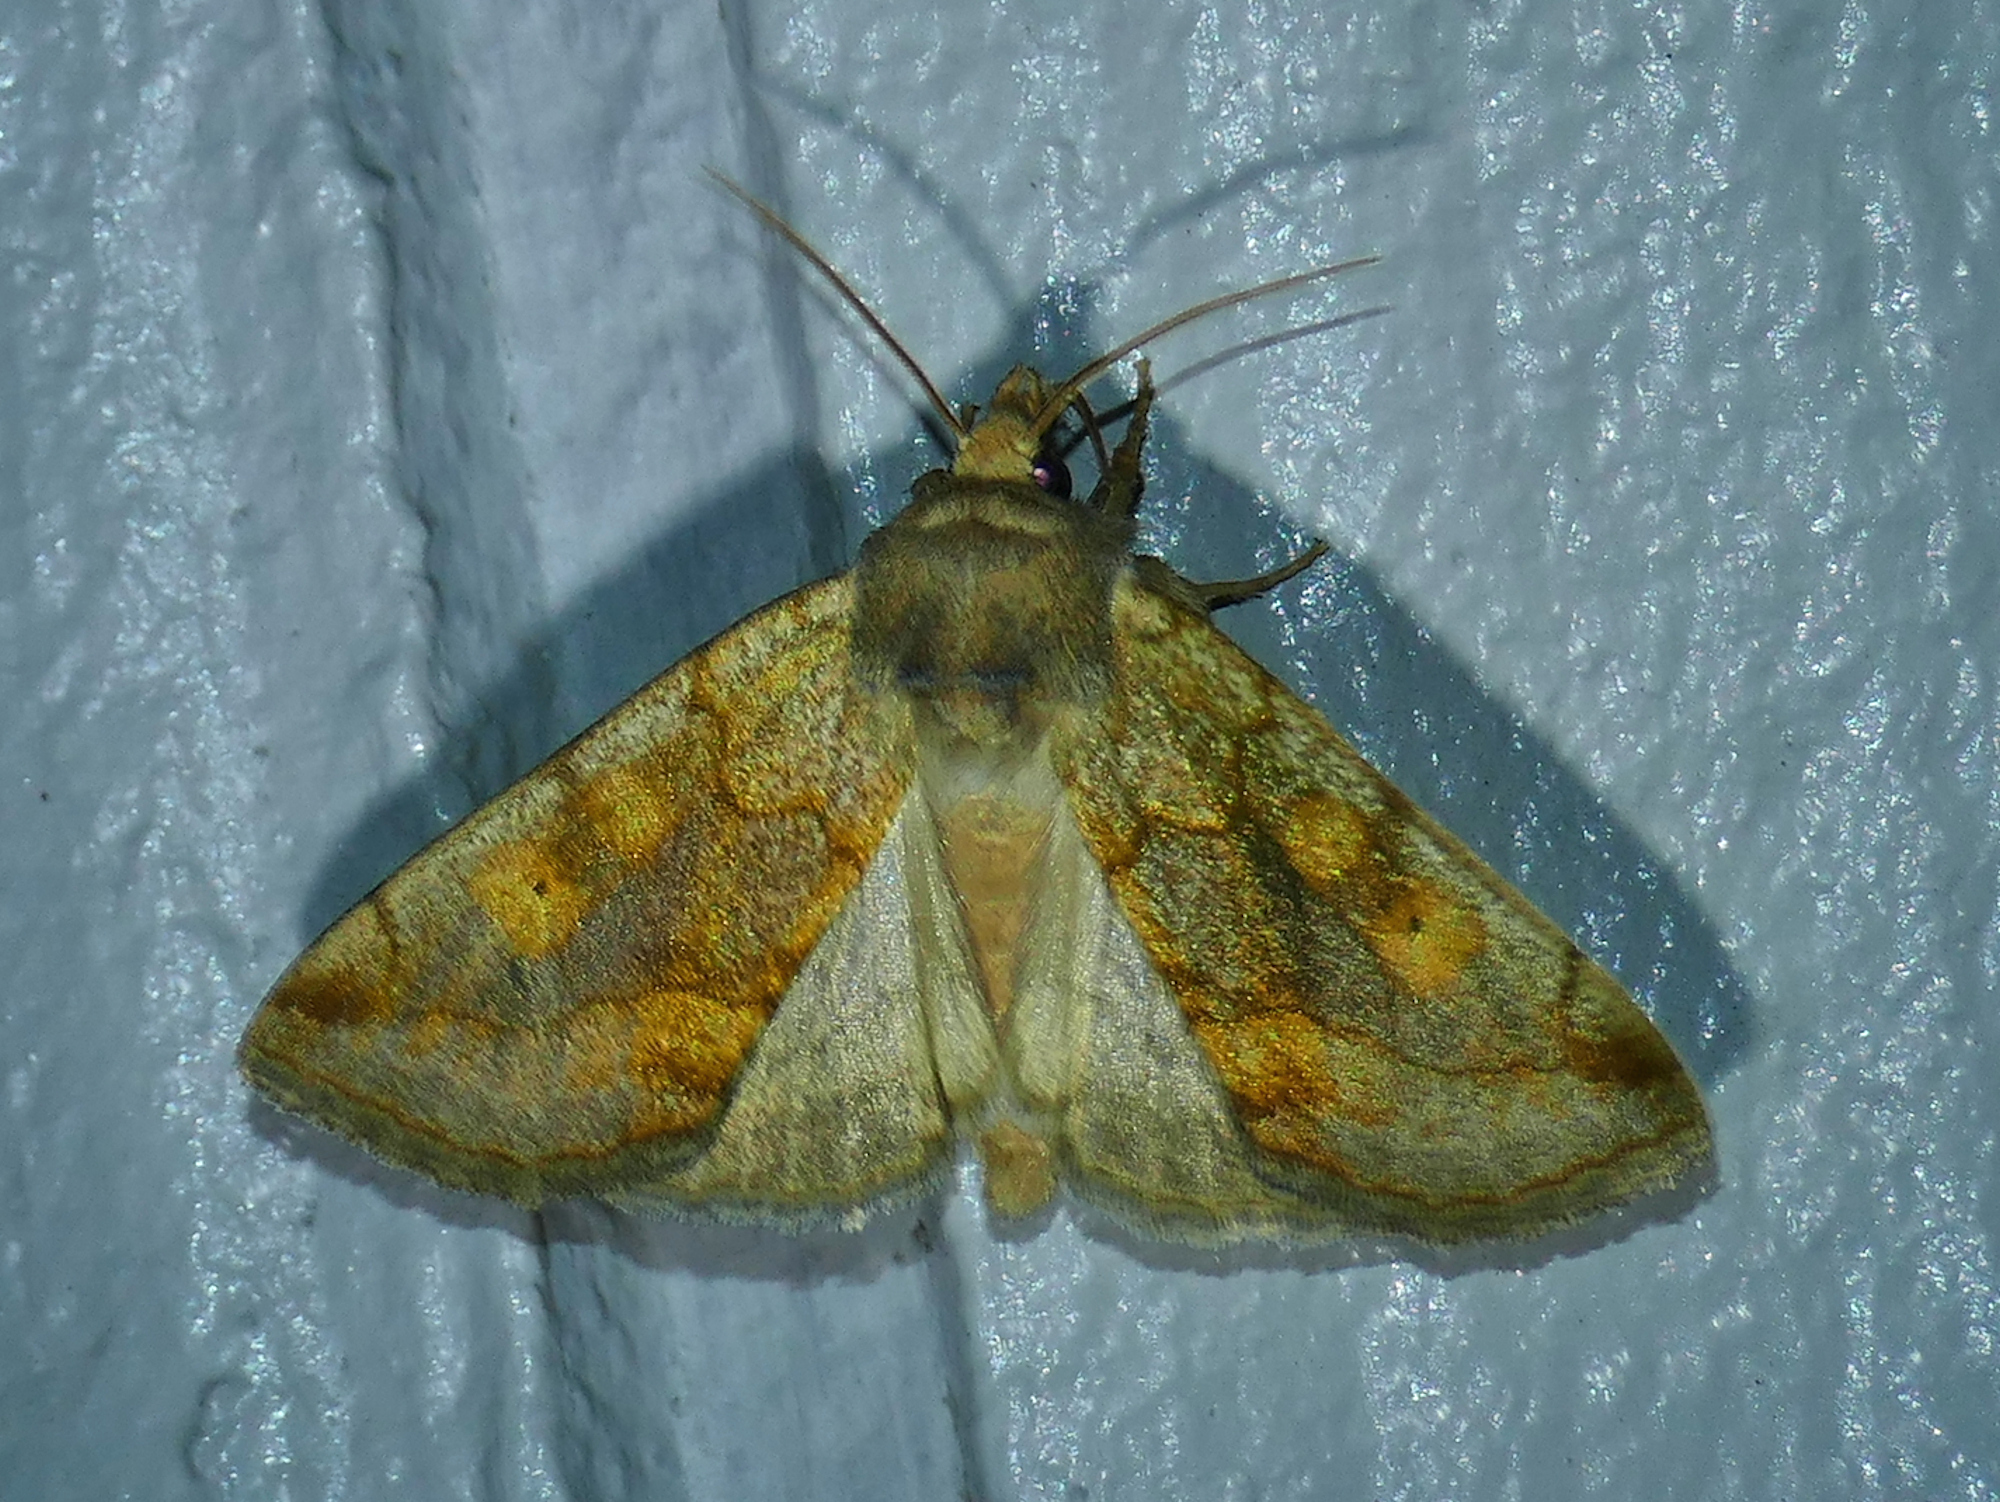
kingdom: Animalia
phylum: Arthropoda
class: Insecta
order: Lepidoptera
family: Noctuidae
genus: Basilodes
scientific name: Basilodes chrysopis
